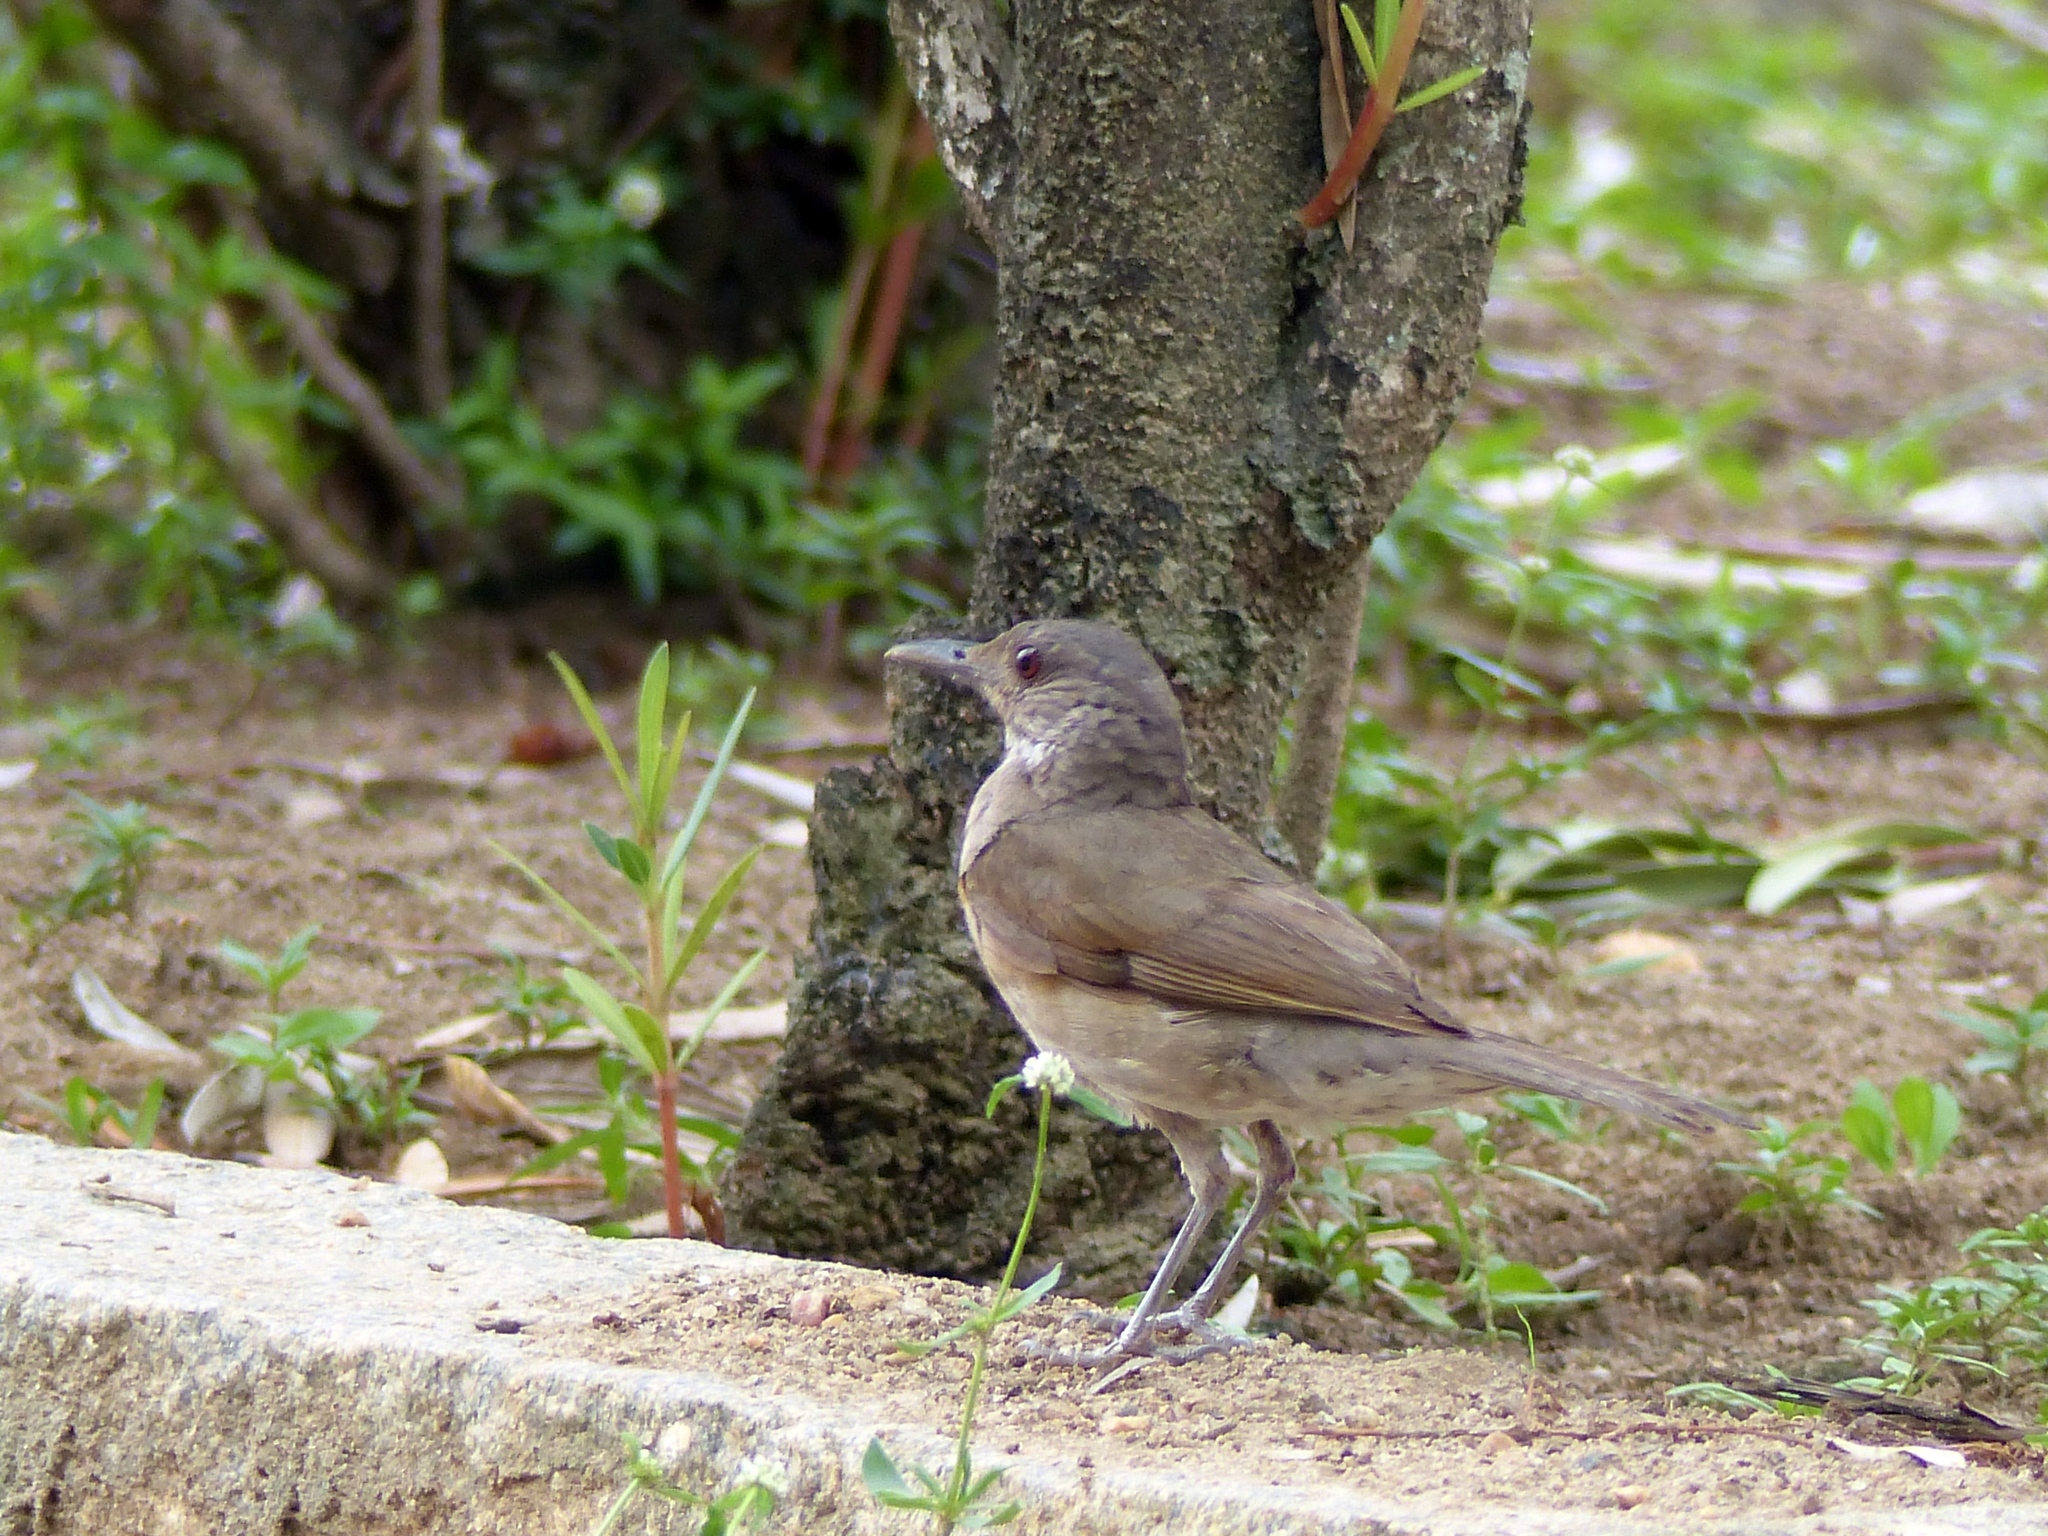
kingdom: Animalia
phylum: Chordata
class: Aves
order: Passeriformes
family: Turdidae
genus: Turdus
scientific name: Turdus leucomelas
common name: Pale-breasted thrush
